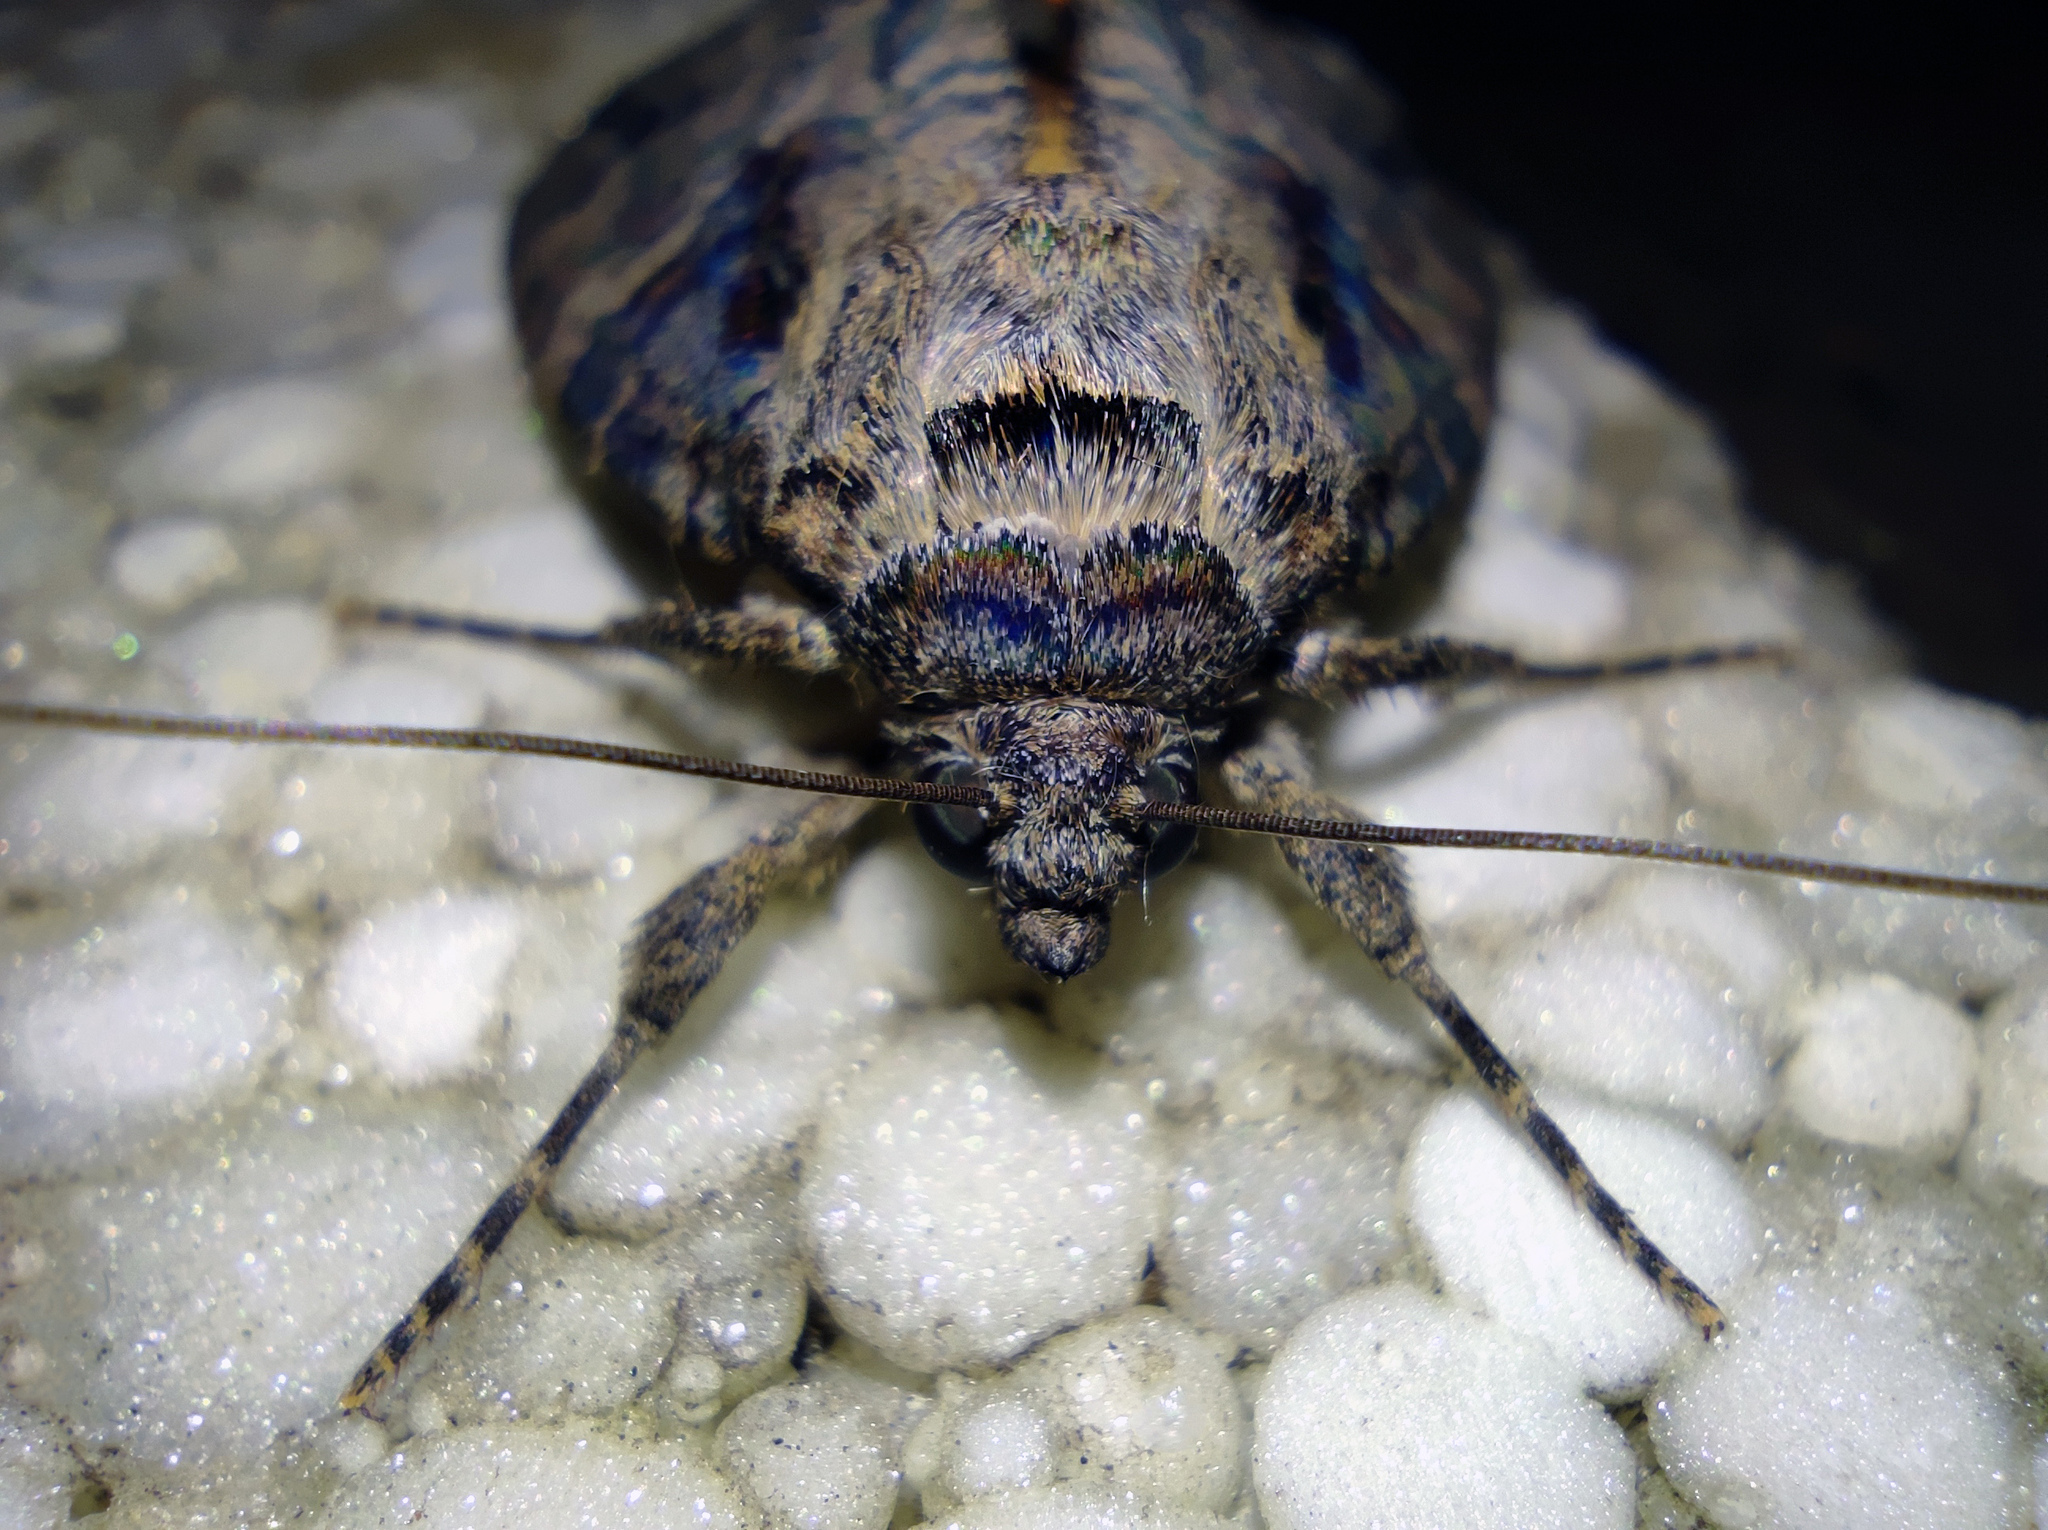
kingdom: Animalia
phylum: Arthropoda
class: Insecta
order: Lepidoptera
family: Erebidae
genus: Catocala
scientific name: Catocala helena
